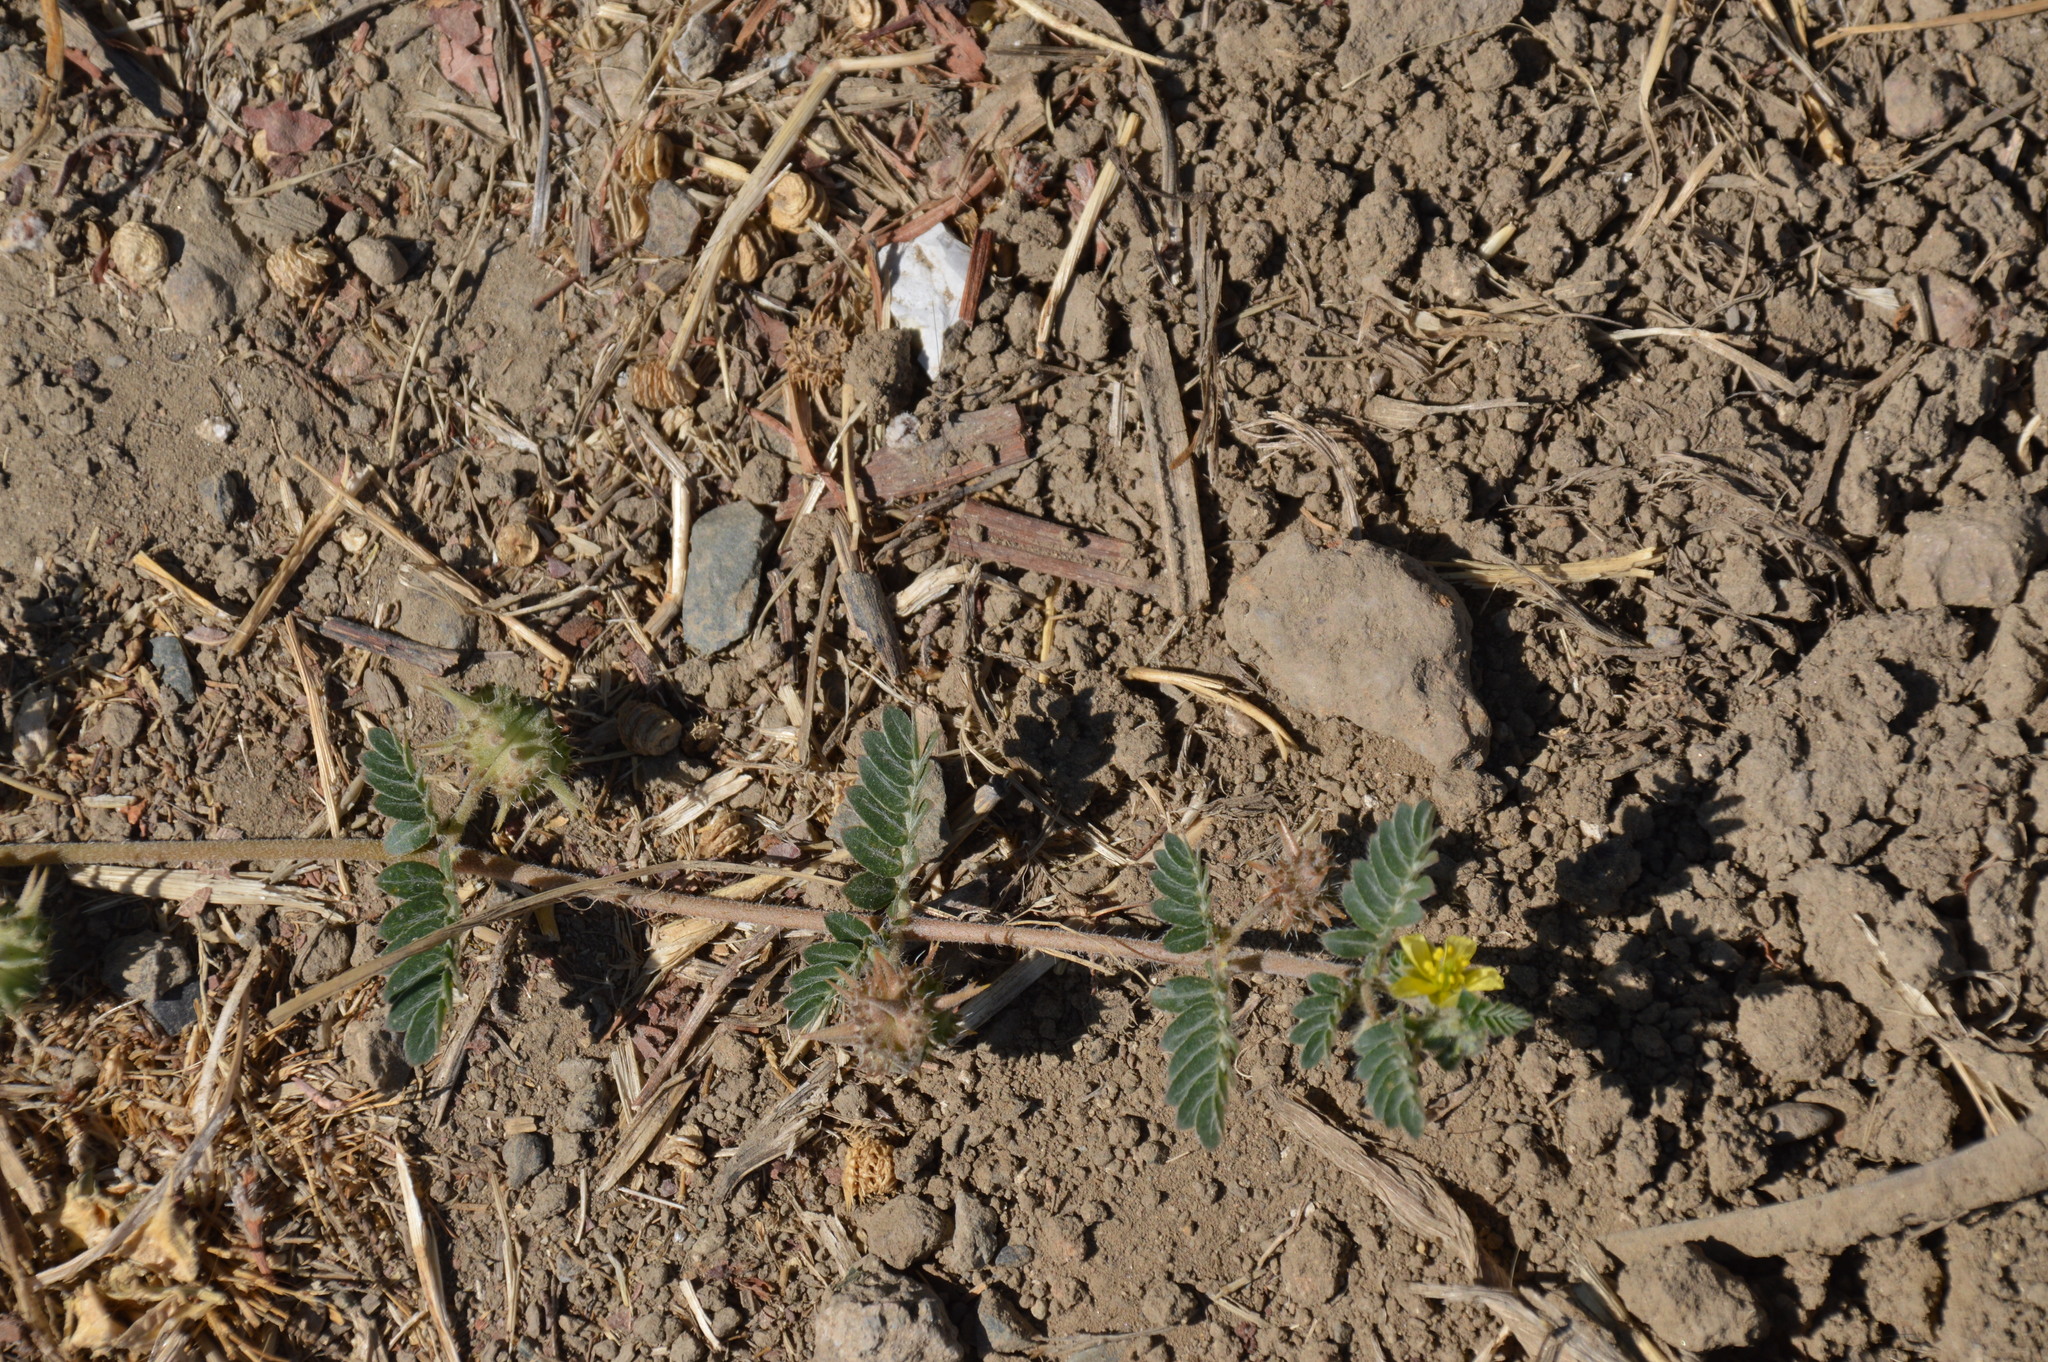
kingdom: Plantae
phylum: Tracheophyta
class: Magnoliopsida
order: Zygophyllales
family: Zygophyllaceae
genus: Tribulus
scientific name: Tribulus terrestris
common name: Puncturevine
